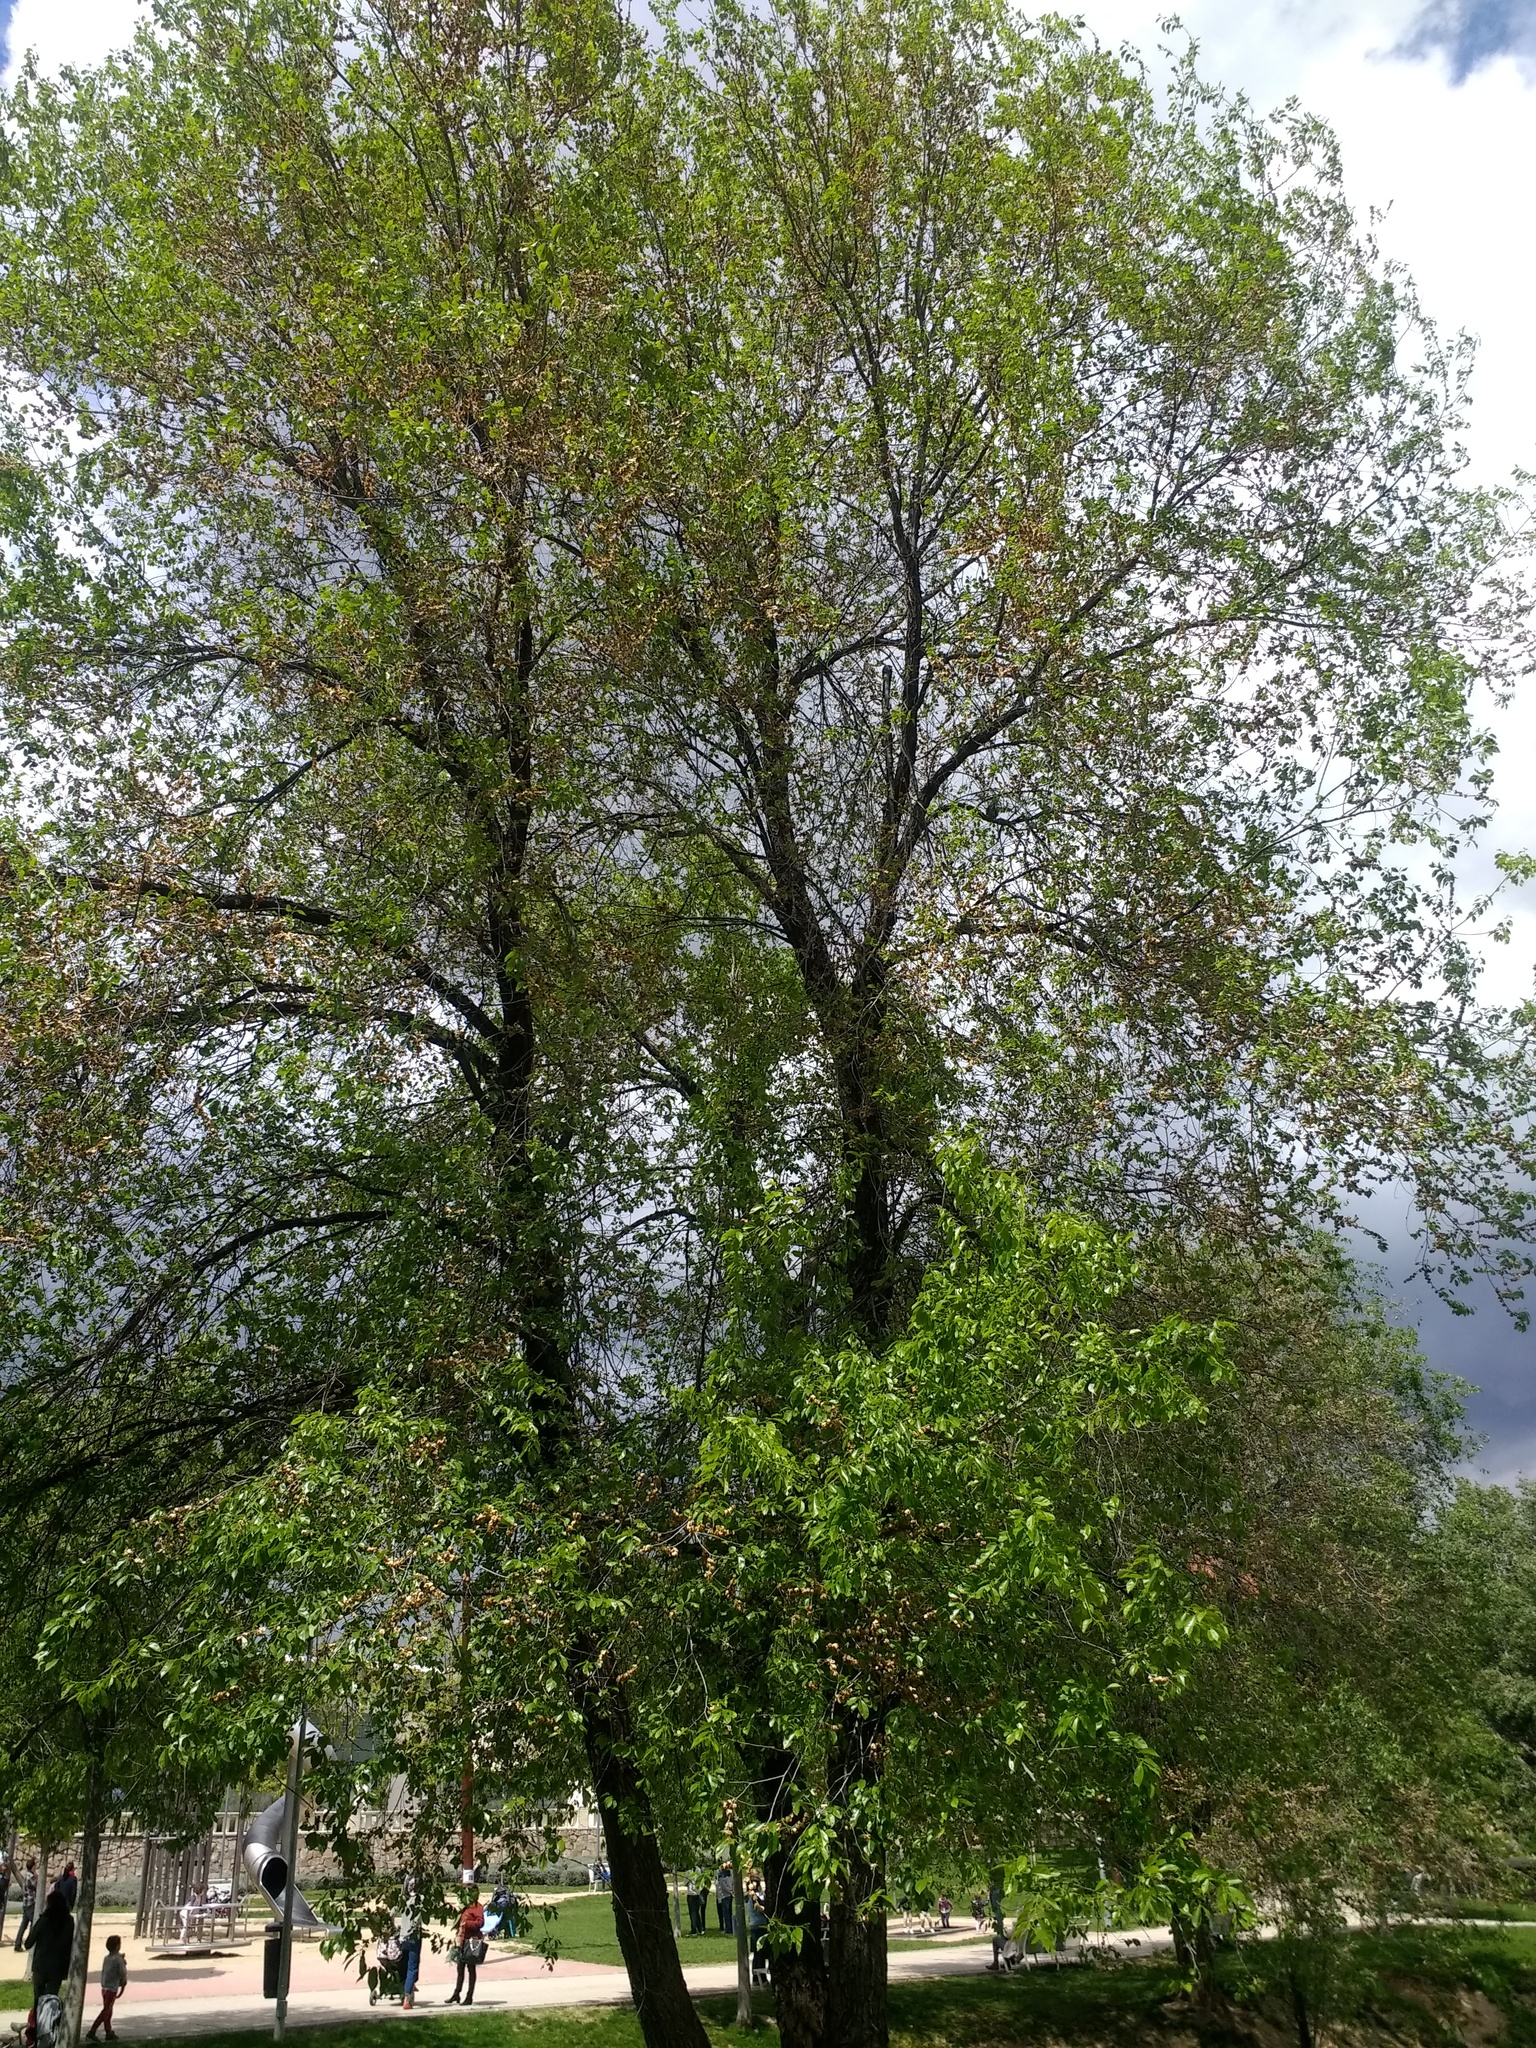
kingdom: Plantae
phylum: Tracheophyta
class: Magnoliopsida
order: Rosales
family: Ulmaceae
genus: Ulmus
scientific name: Ulmus pumila
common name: Siberian elm
